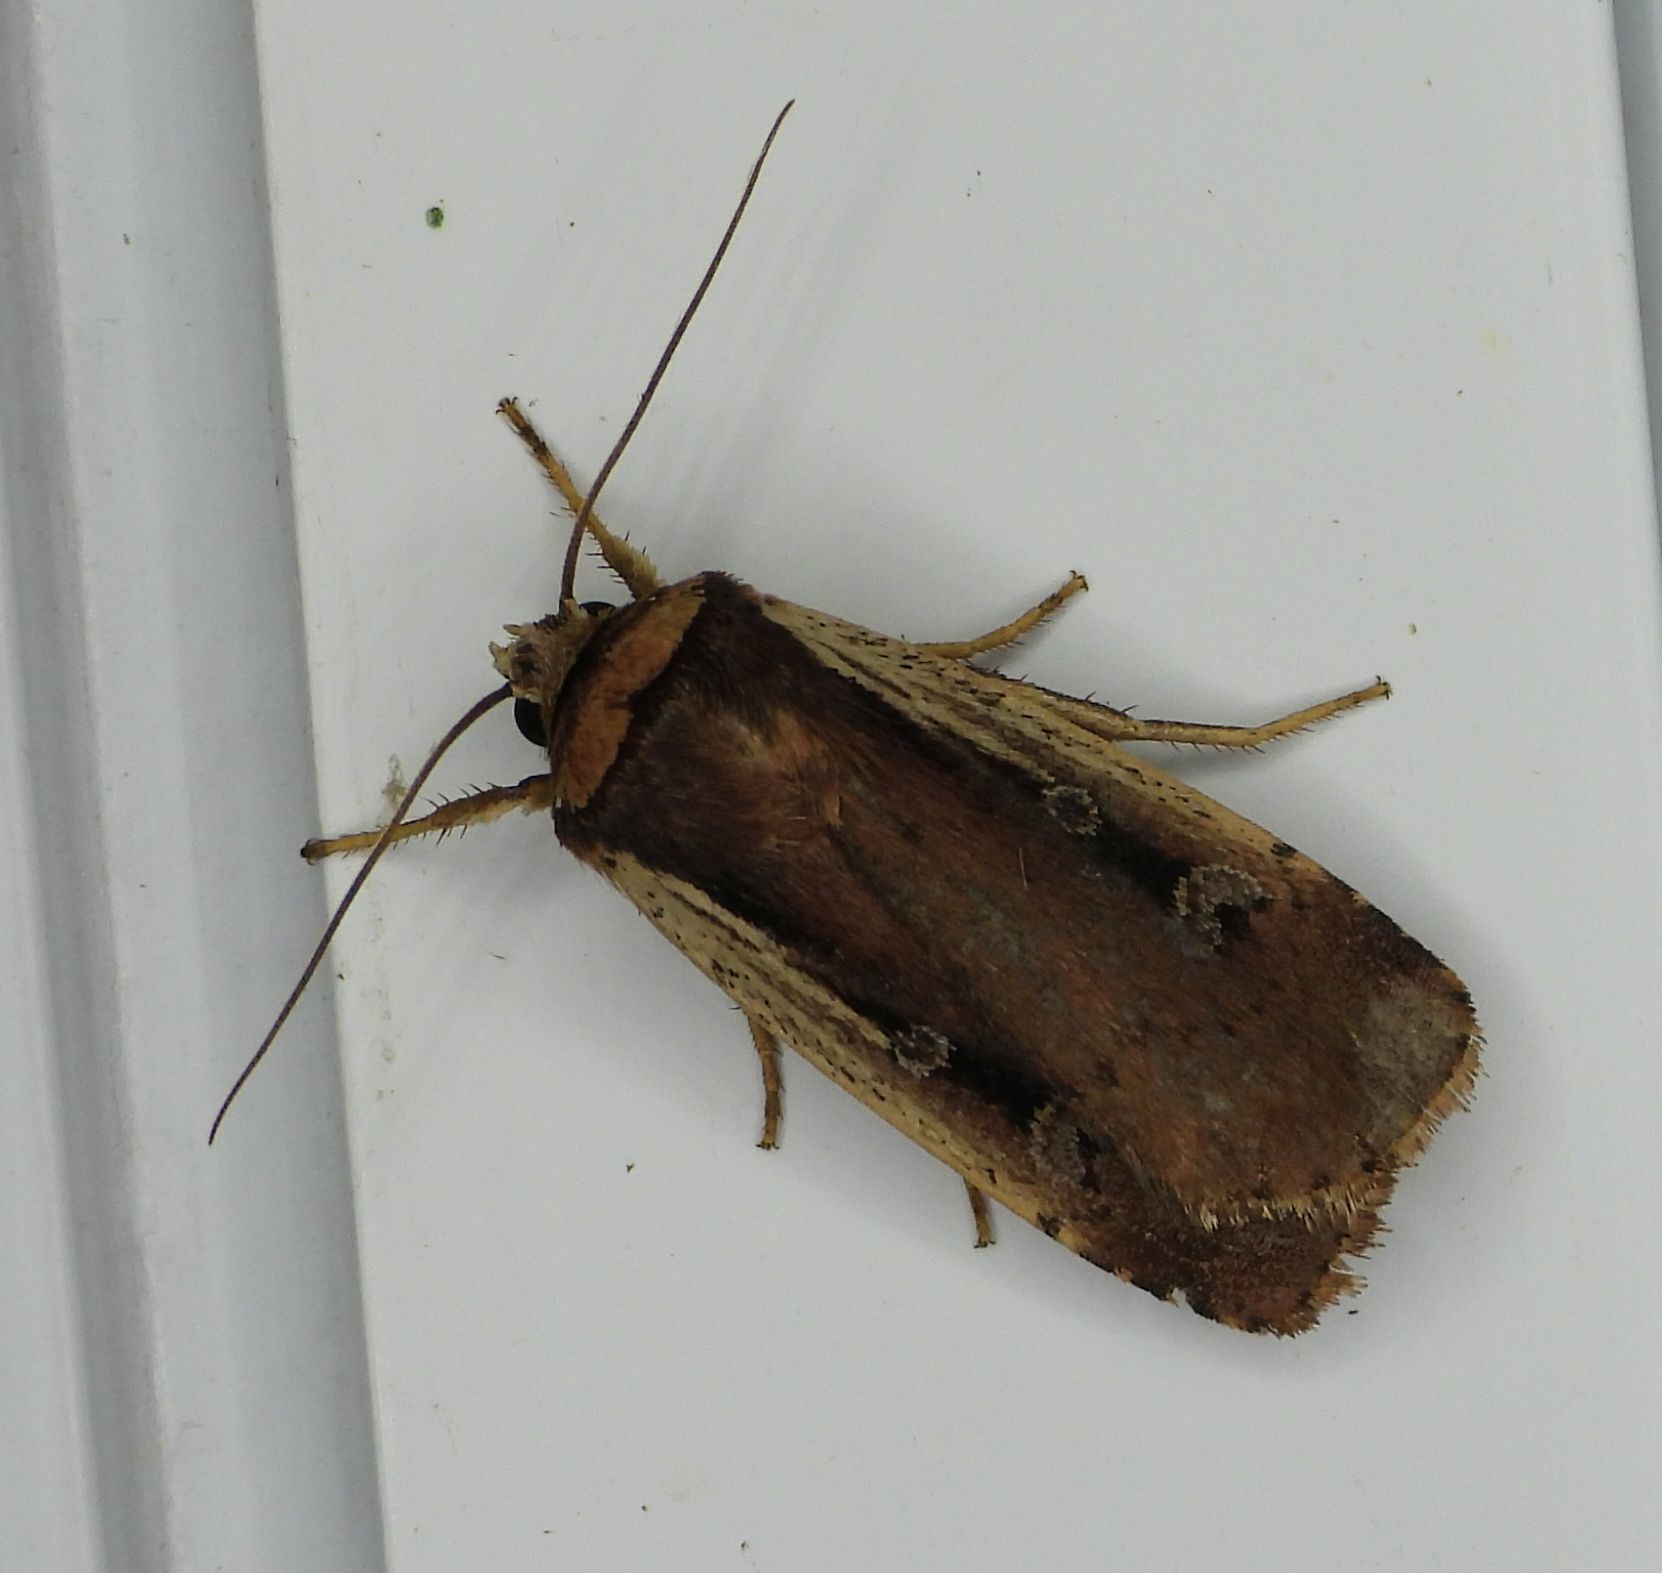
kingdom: Animalia
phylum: Arthropoda
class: Insecta
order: Lepidoptera
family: Noctuidae
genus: Ochropleura
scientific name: Ochropleura implecta
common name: Flame-shouldered dart
